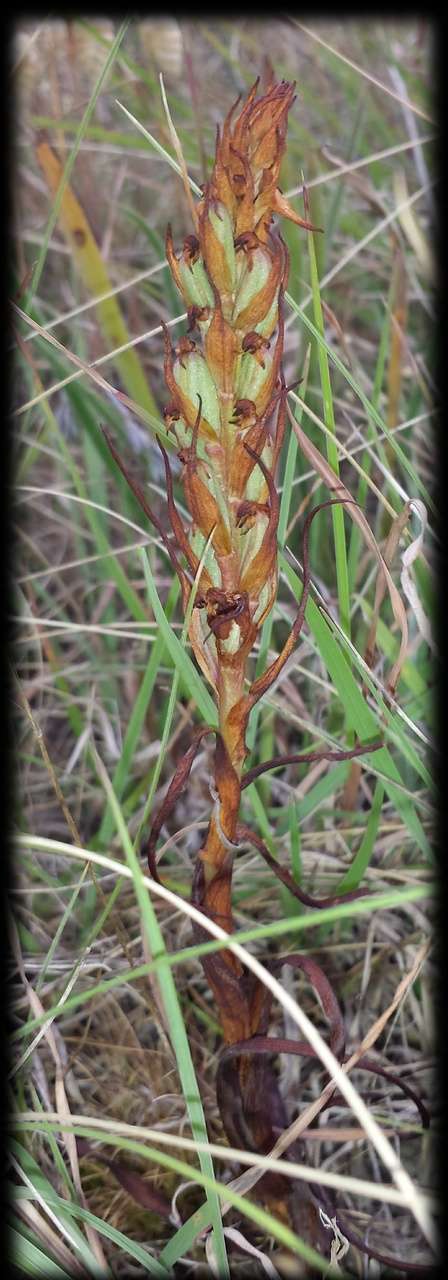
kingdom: Plantae
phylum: Tracheophyta
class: Liliopsida
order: Asparagales
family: Orchidaceae
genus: Disa
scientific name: Disa bracteata
